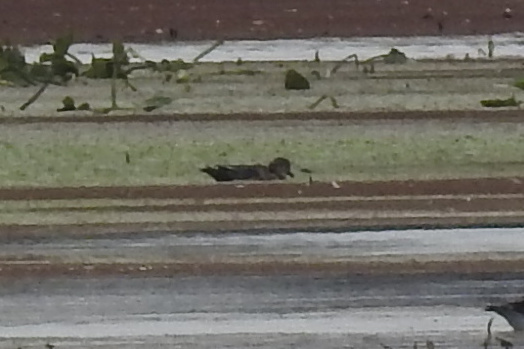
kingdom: Animalia
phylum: Chordata
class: Aves
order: Anseriformes
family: Anatidae
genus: Mareca
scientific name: Mareca strepera
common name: Gadwall
